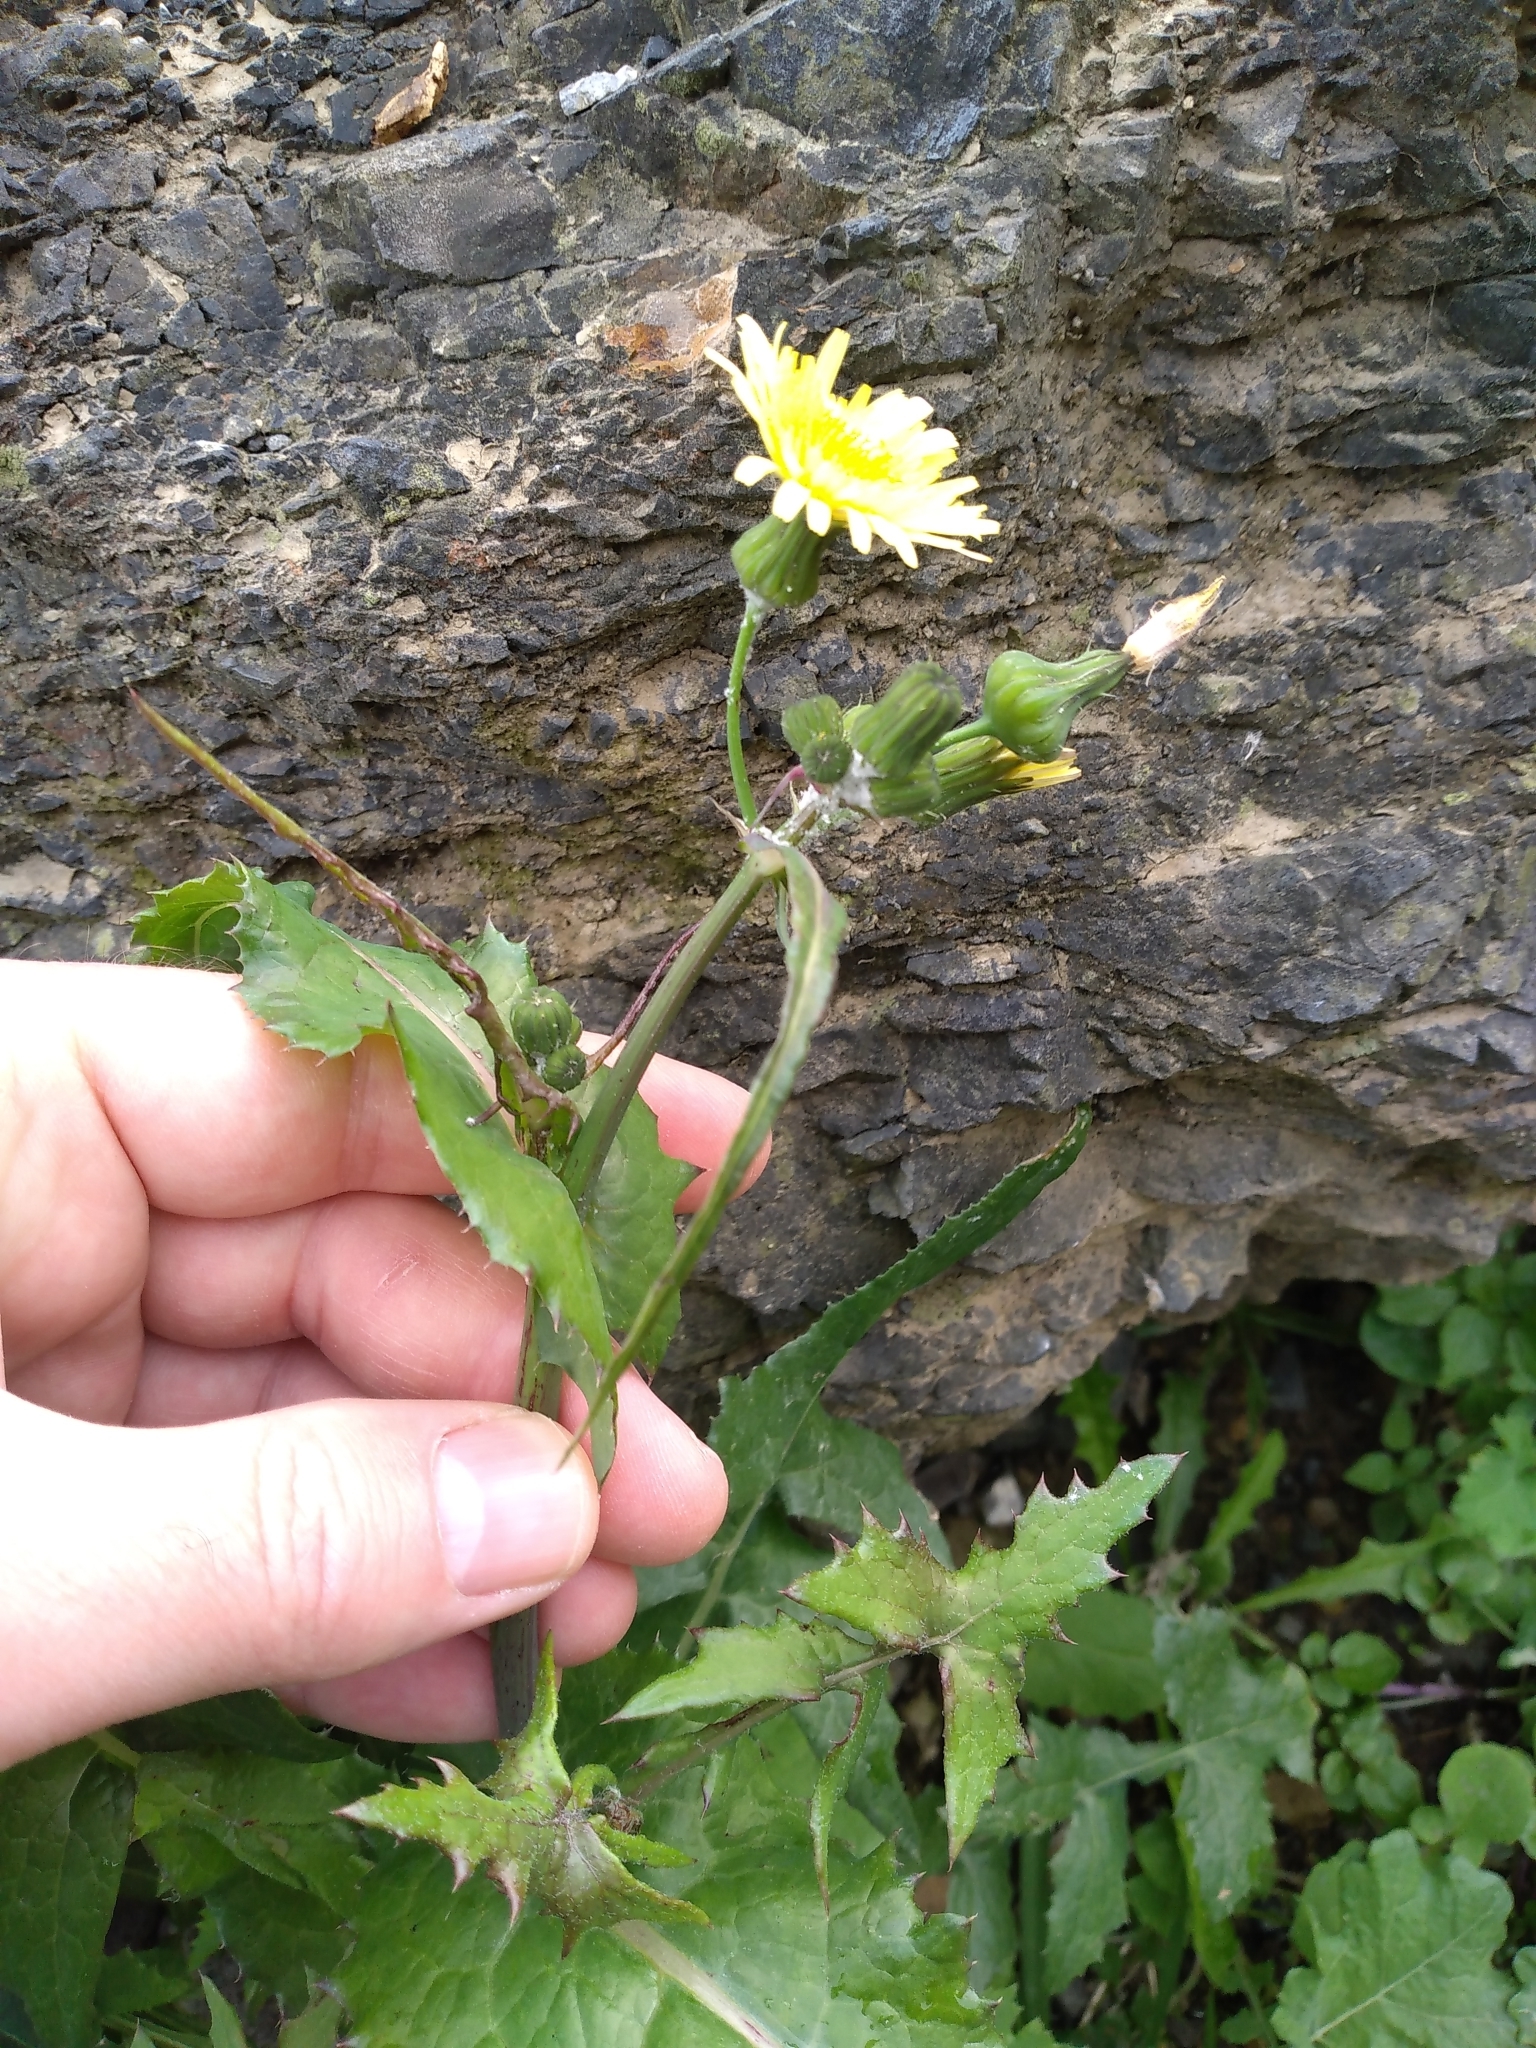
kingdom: Plantae
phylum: Tracheophyta
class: Magnoliopsida
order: Asterales
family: Asteraceae
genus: Sonchus
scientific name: Sonchus oleraceus
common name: Common sowthistle
